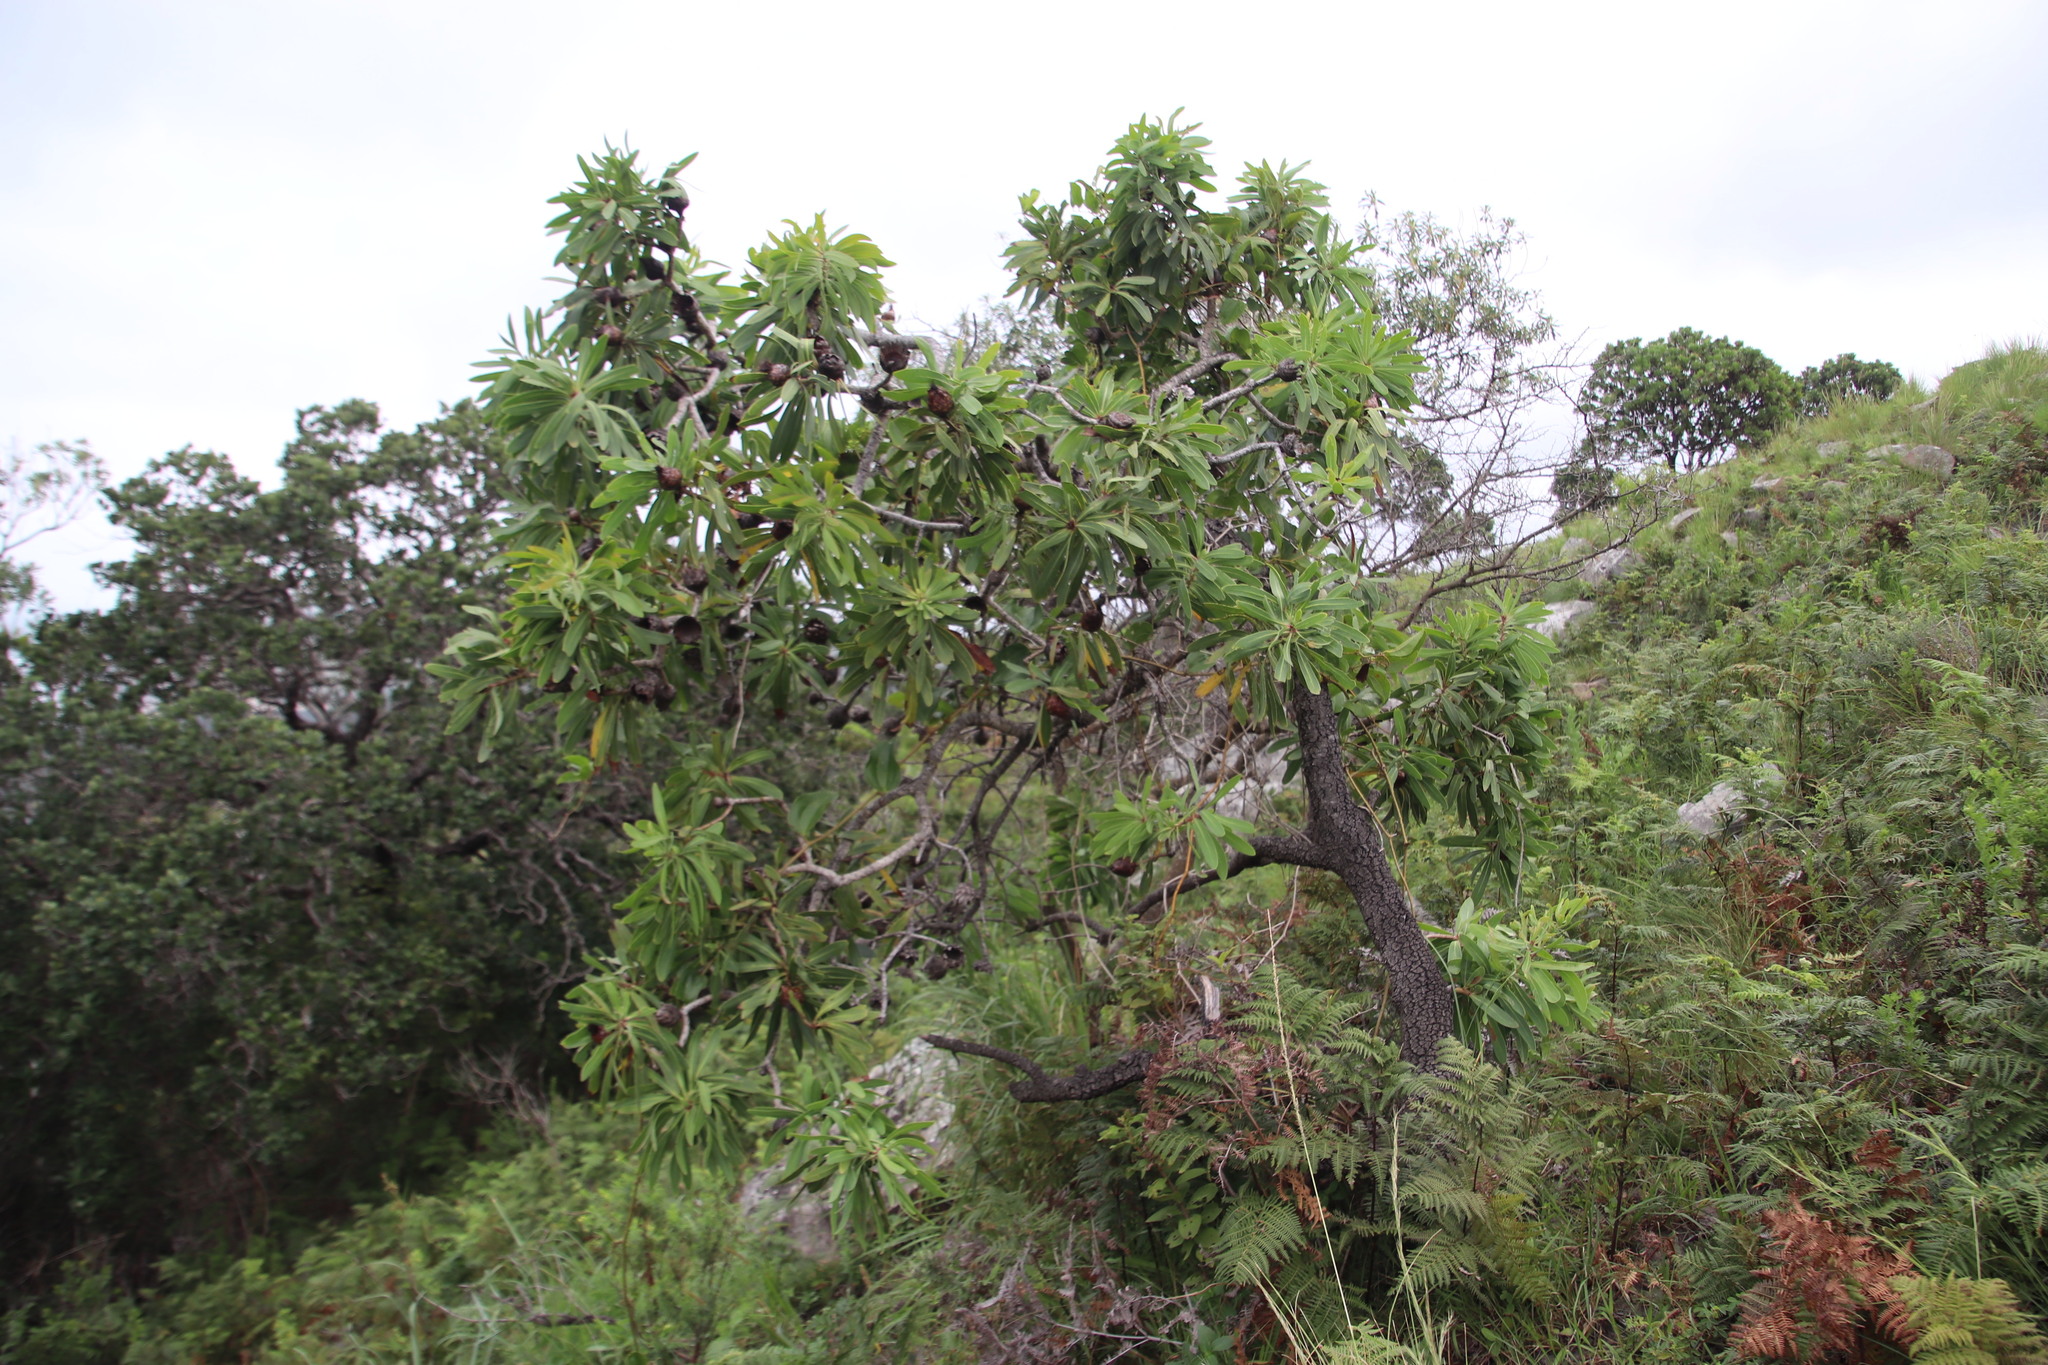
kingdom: Plantae
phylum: Tracheophyta
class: Magnoliopsida
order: Proteales
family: Proteaceae
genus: Protea
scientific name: Protea caffra
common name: Common sugarbush
